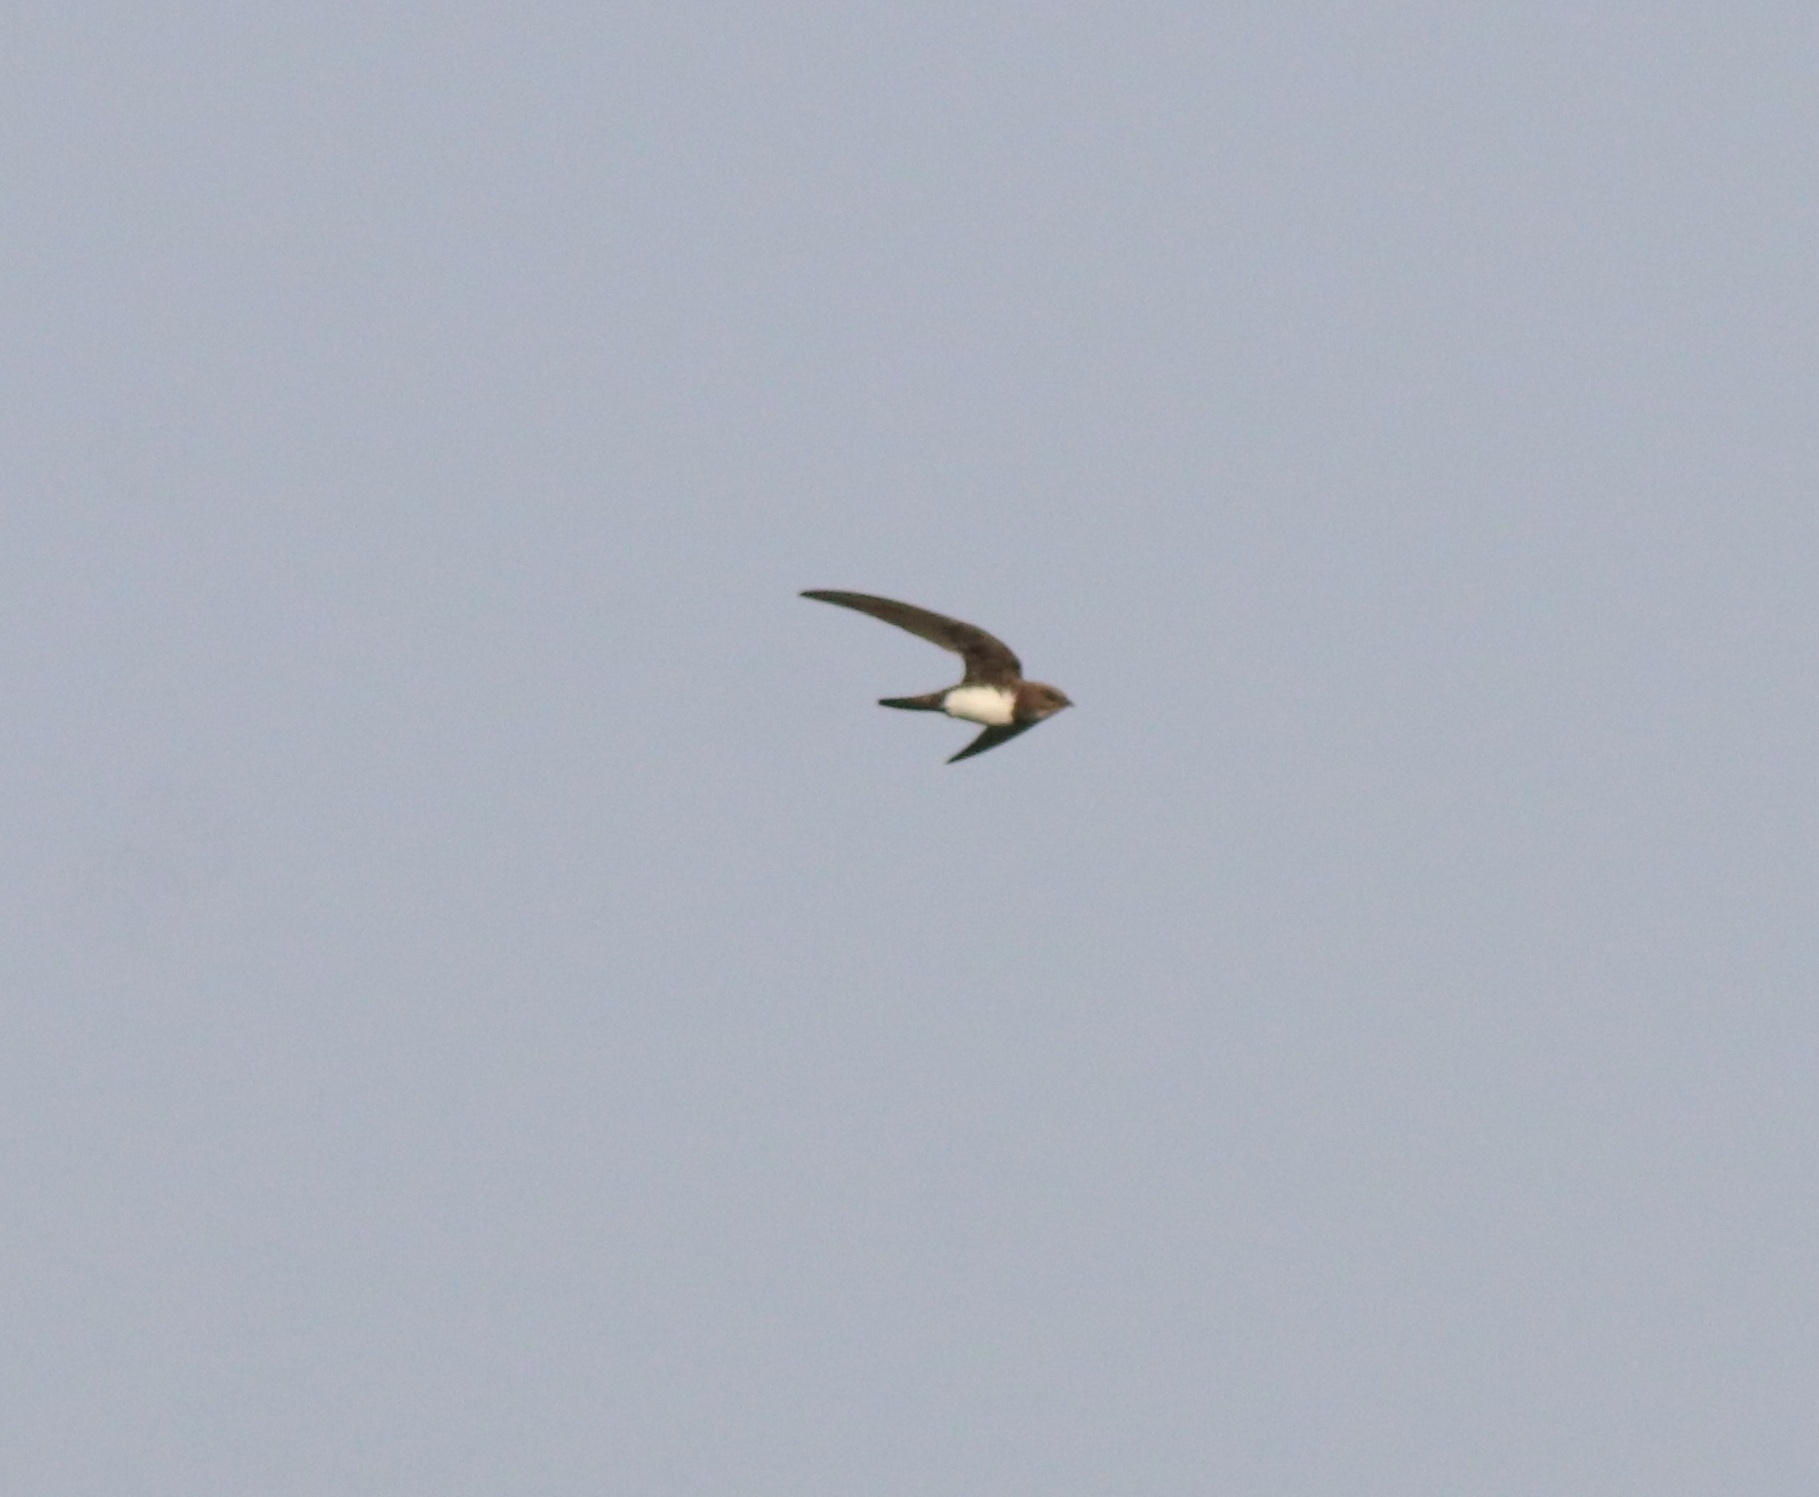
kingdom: Animalia
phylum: Chordata
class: Aves
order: Apodiformes
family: Apodidae
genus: Tachymarptis
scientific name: Tachymarptis melba
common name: Alpine swift
